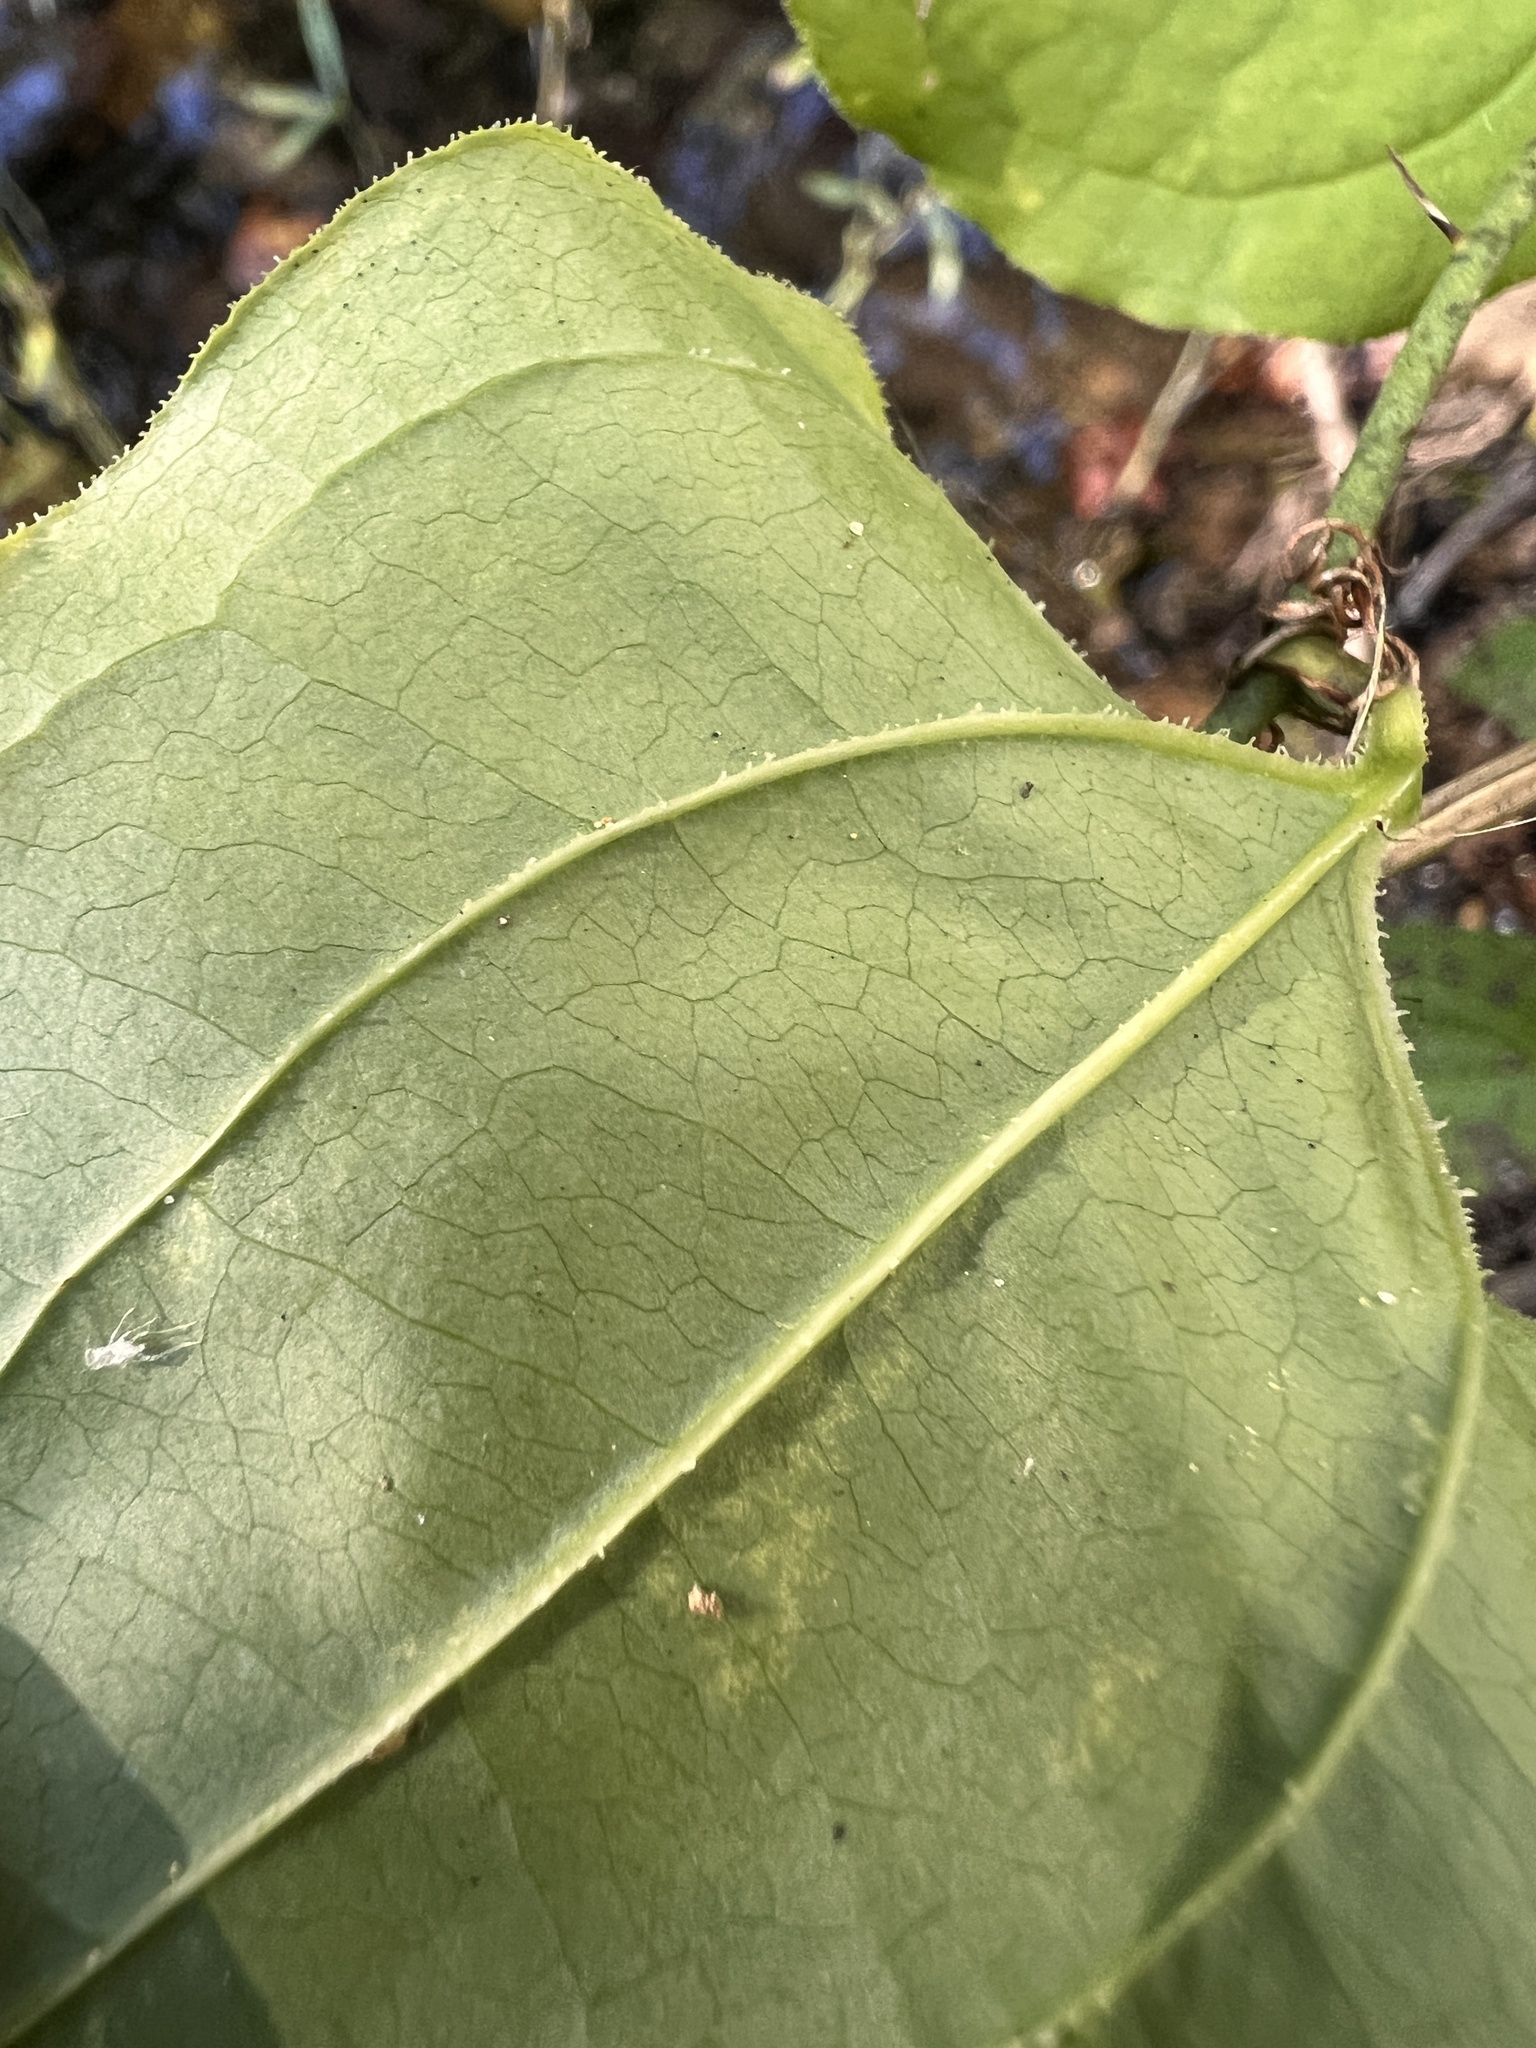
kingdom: Plantae
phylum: Tracheophyta
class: Liliopsida
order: Liliales
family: Smilacaceae
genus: Smilax
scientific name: Smilax tamnoides
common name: Hellfetter
